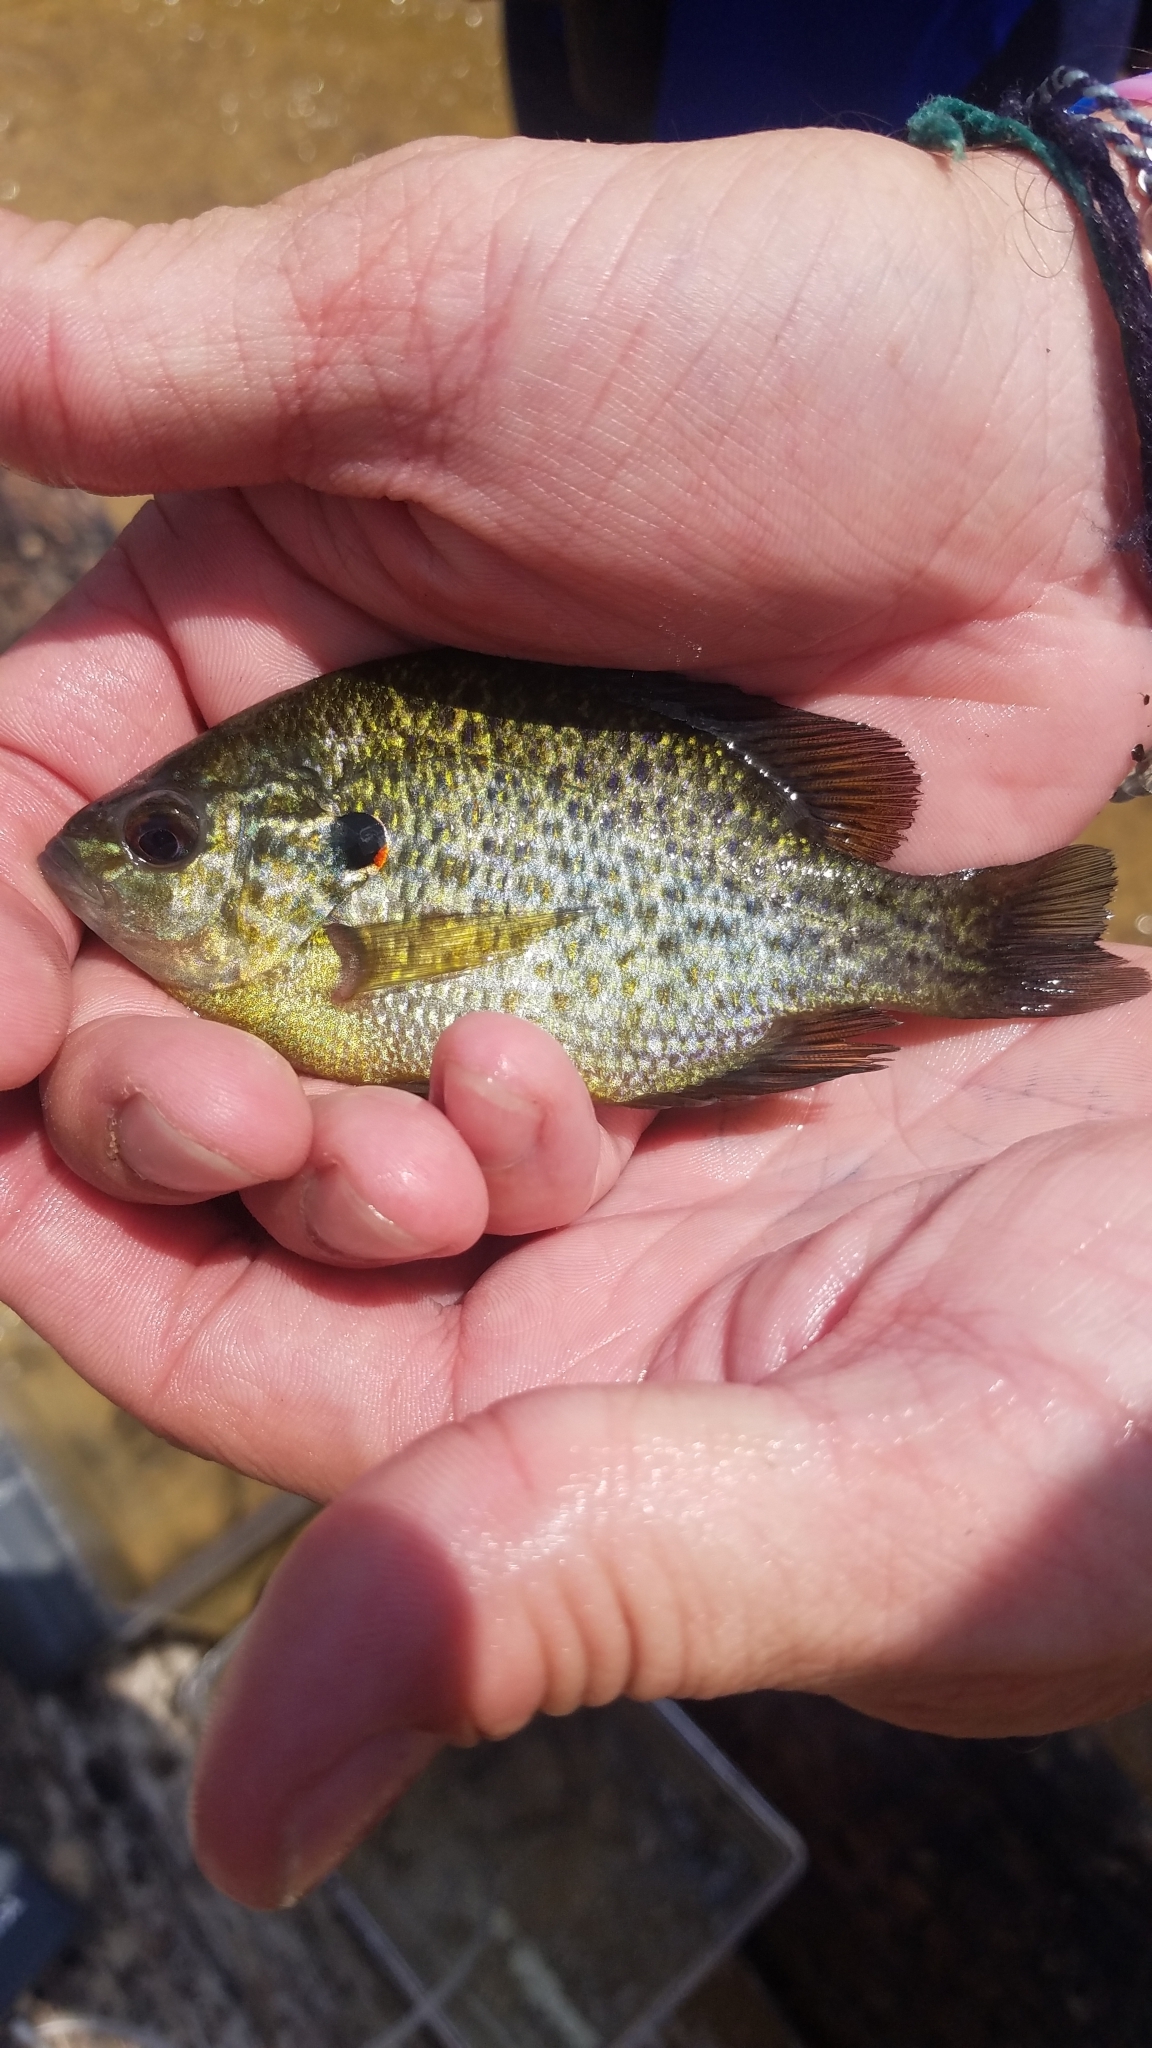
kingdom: Animalia
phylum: Chordata
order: Perciformes
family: Centrarchidae
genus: Lepomis
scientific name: Lepomis gibbosus
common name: Pumpkinseed
